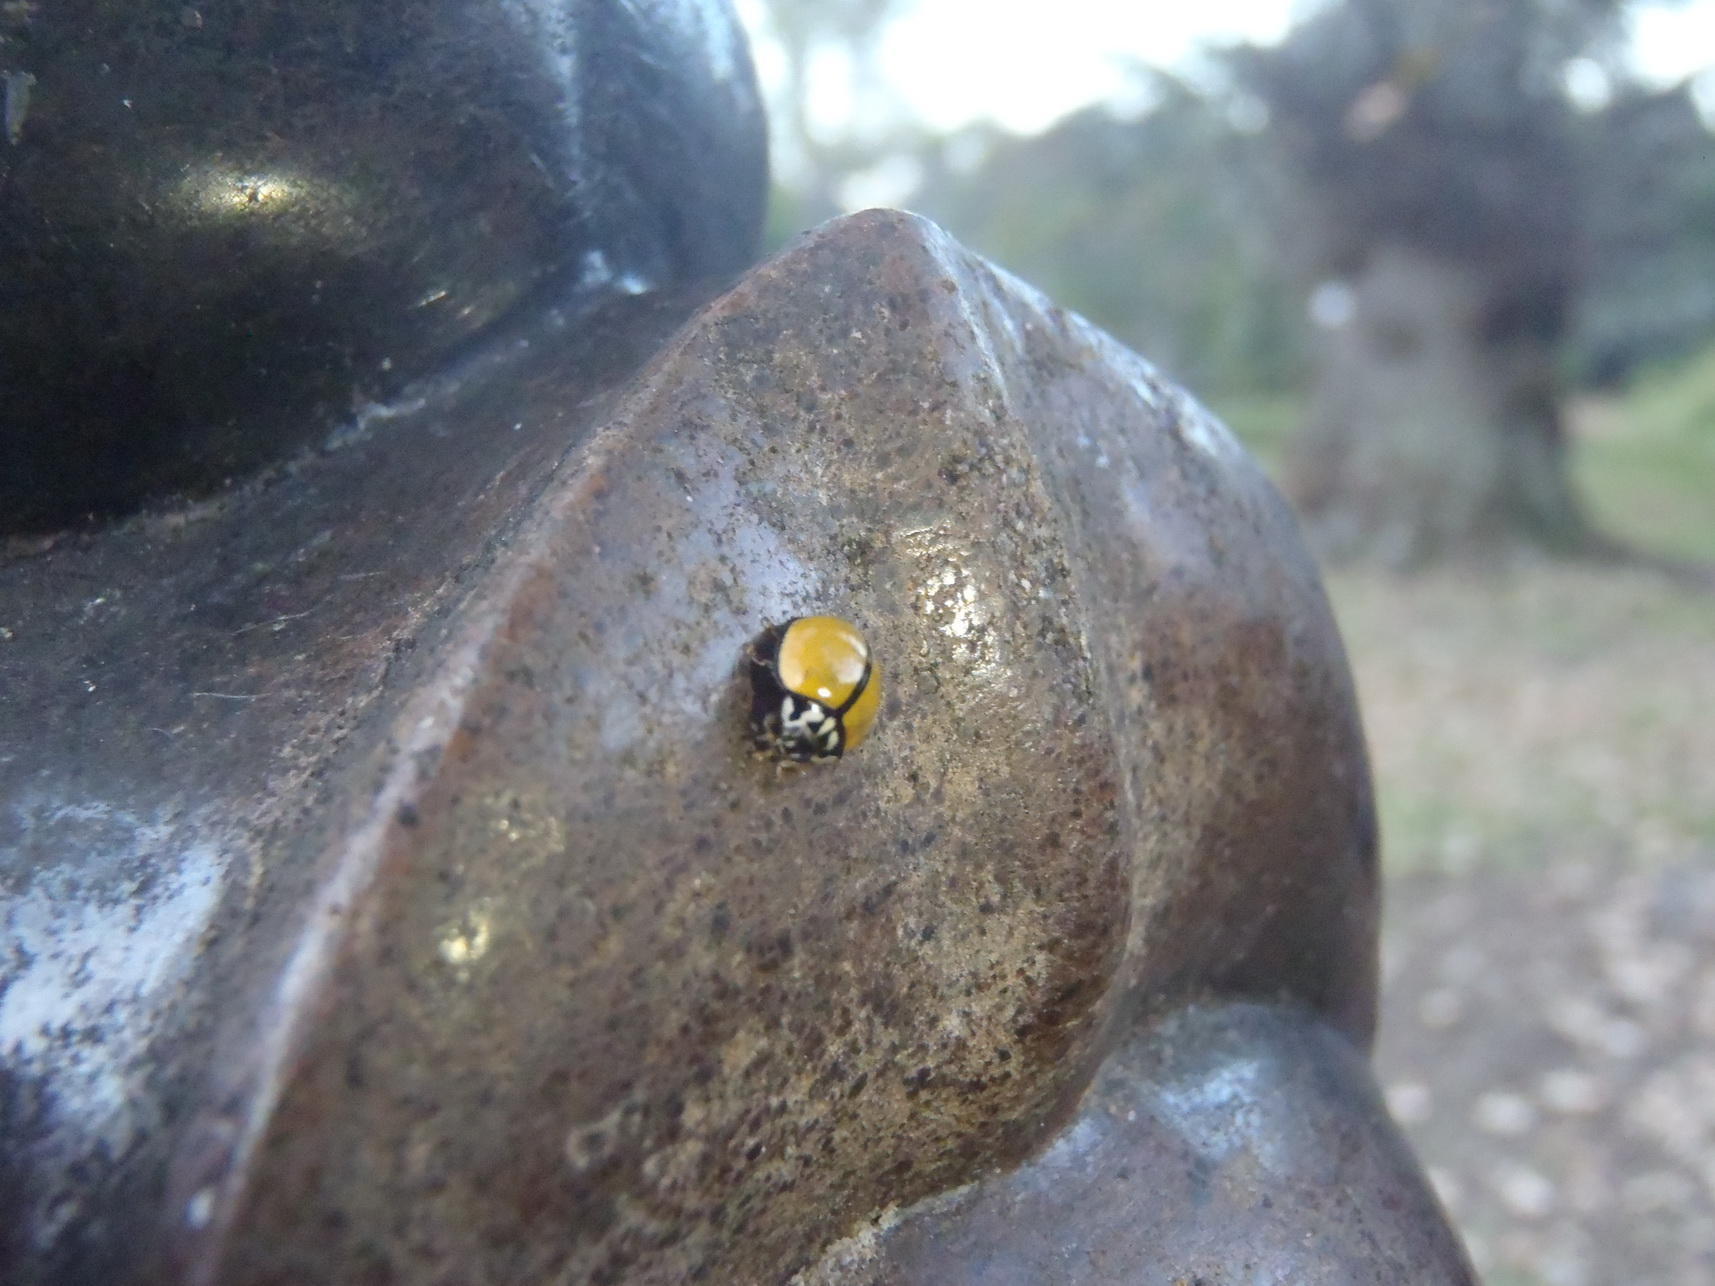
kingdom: Animalia
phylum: Arthropoda
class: Insecta
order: Coleoptera
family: Coccinellidae
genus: Oenopia
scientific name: Oenopia
